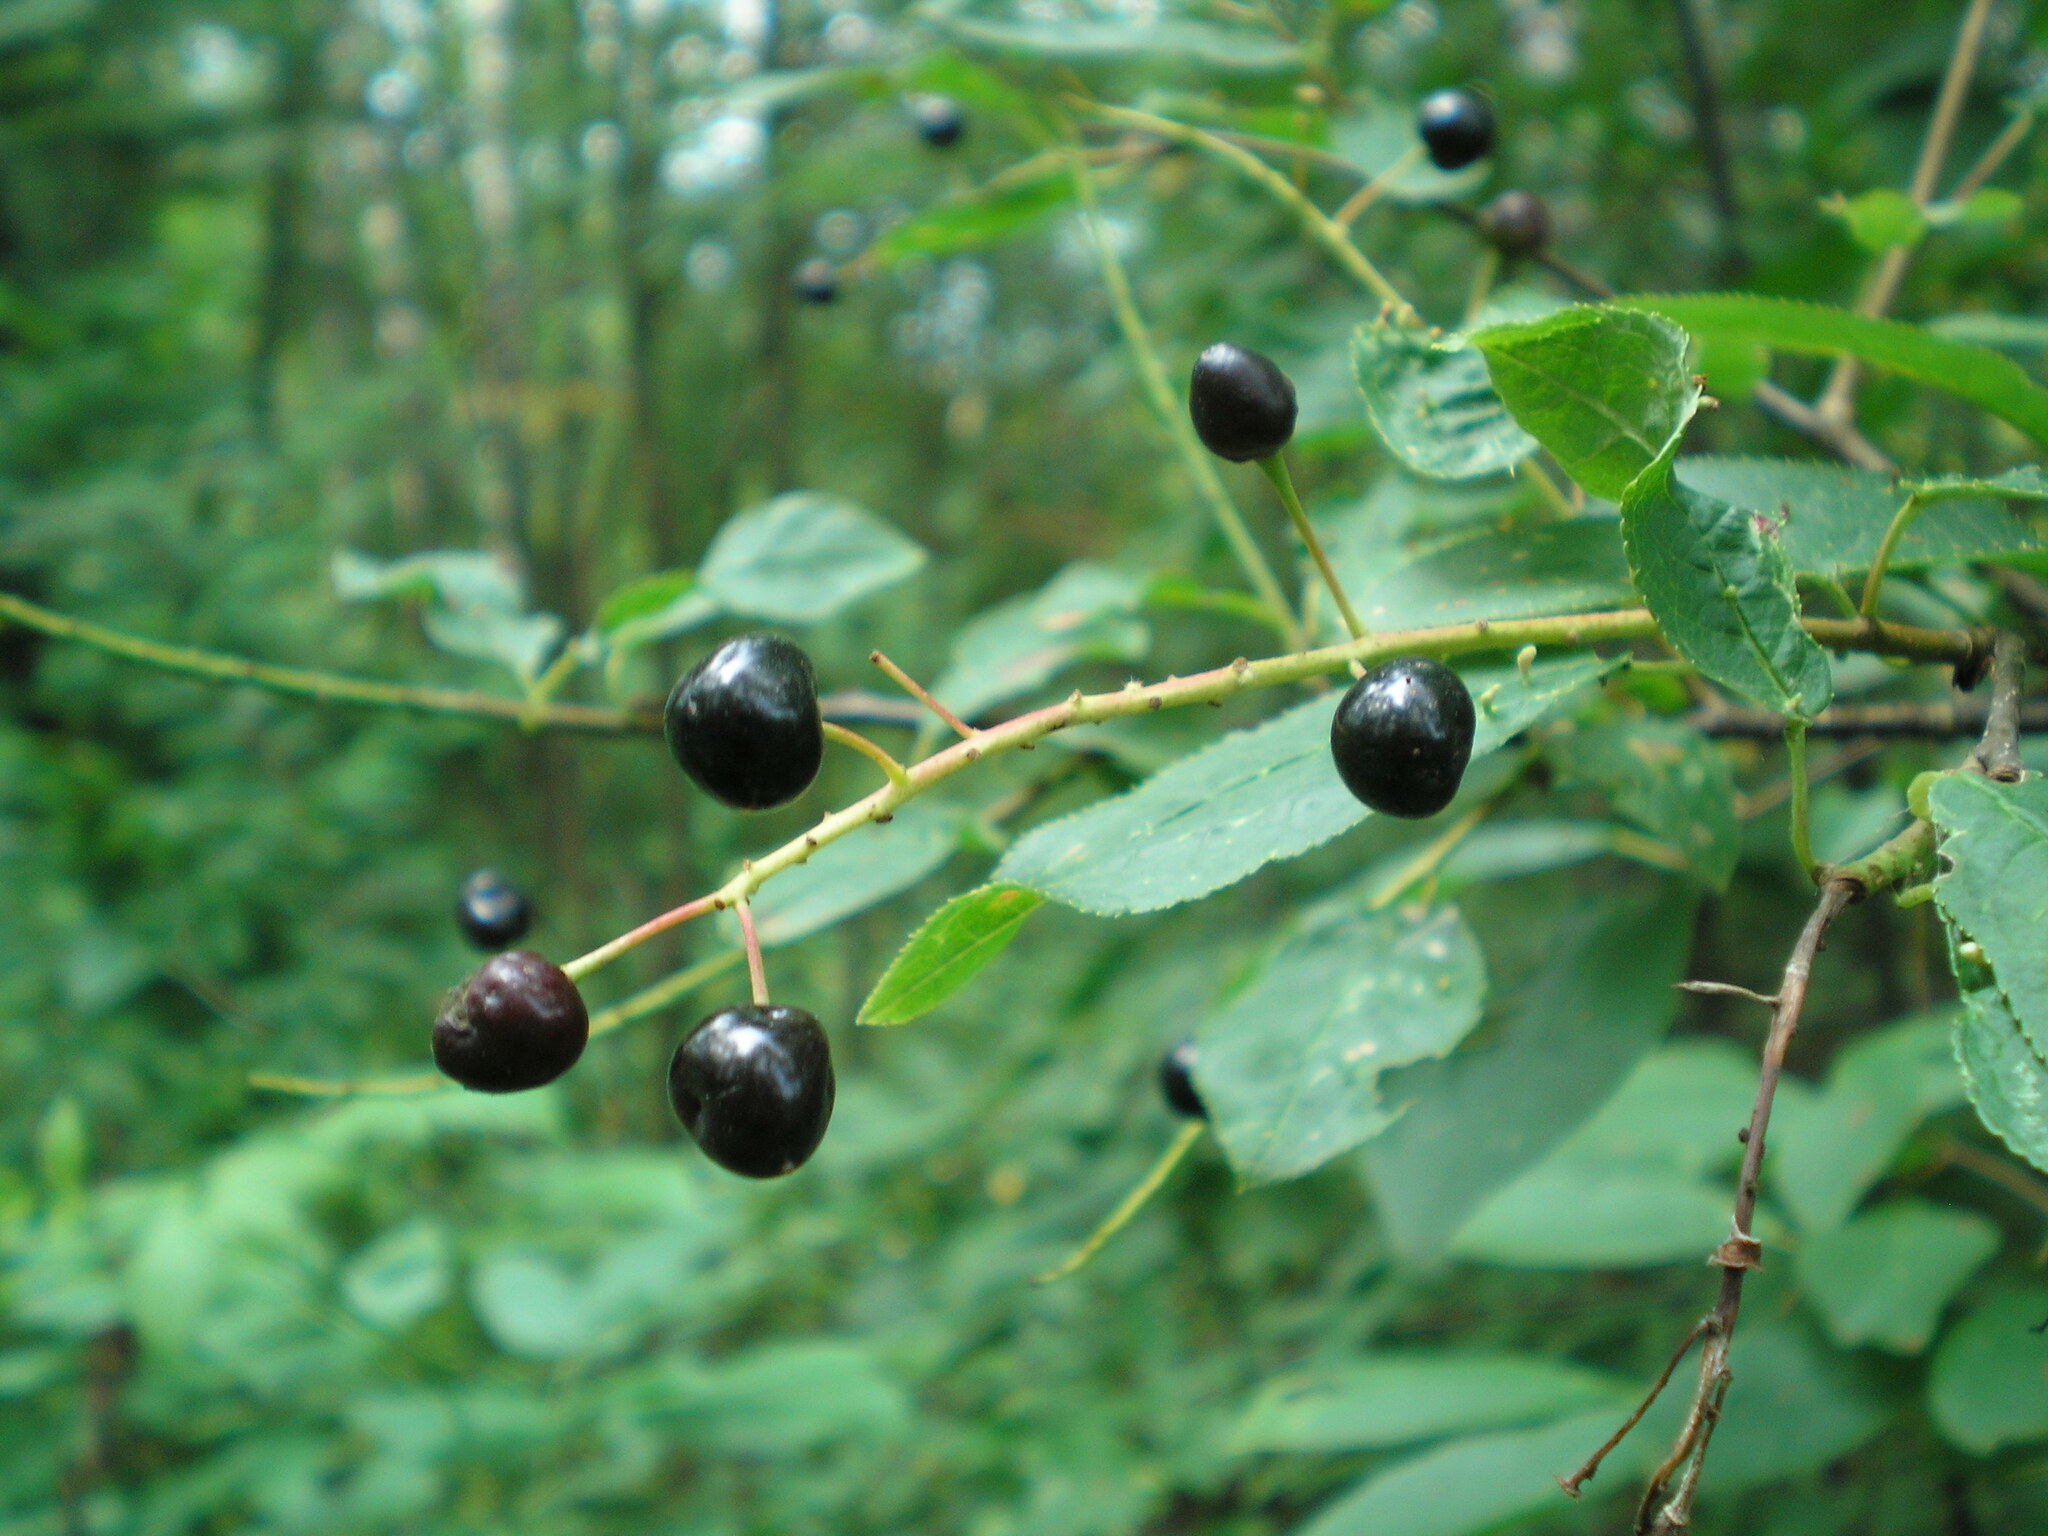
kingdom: Plantae
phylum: Tracheophyta
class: Magnoliopsida
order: Rosales
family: Rosaceae
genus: Prunus
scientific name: Prunus padus
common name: Bird cherry
